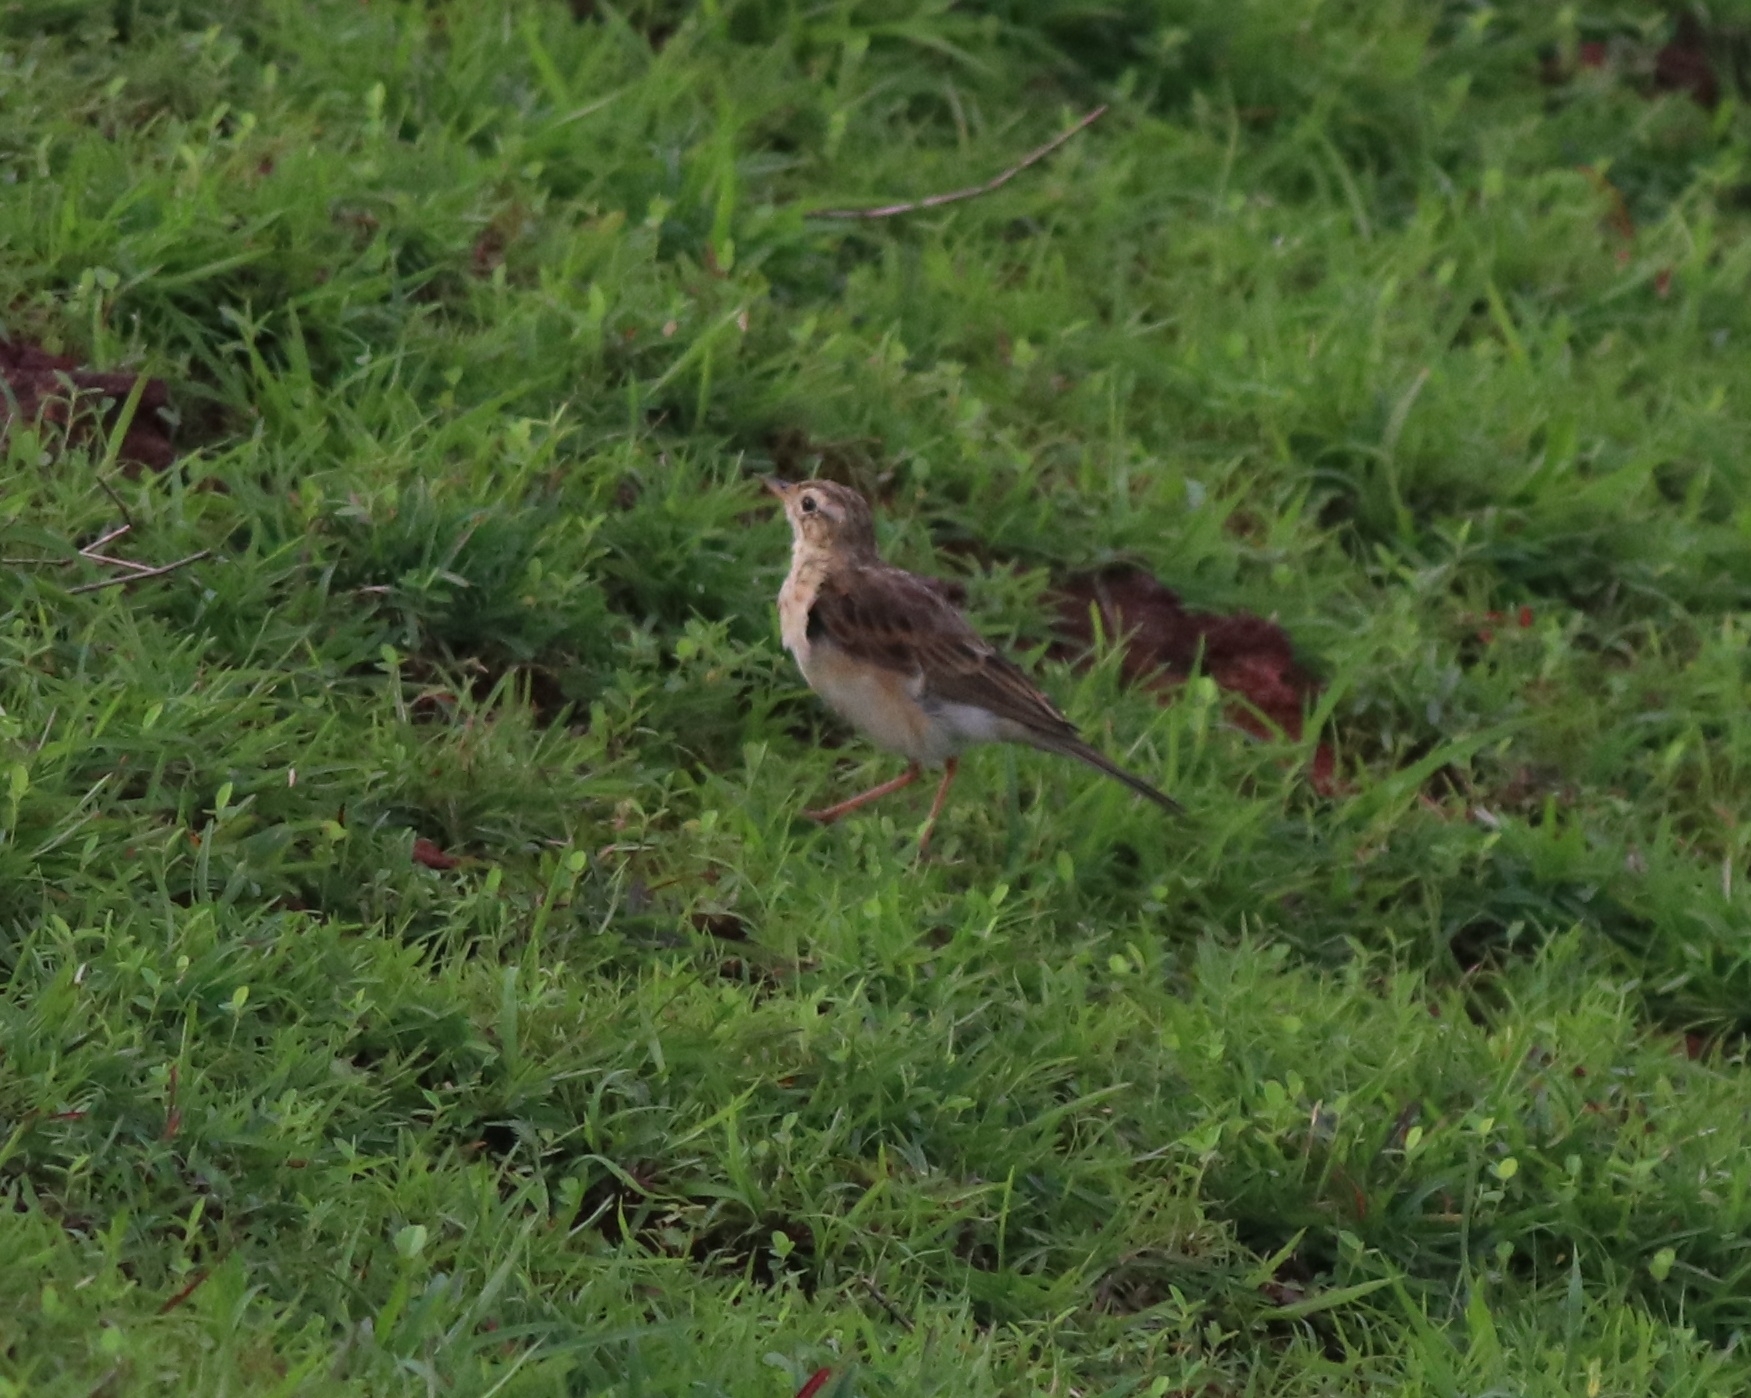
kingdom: Animalia
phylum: Chordata
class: Aves
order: Passeriformes
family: Motacillidae
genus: Anthus
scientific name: Anthus rufulus
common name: Paddyfield pipit
